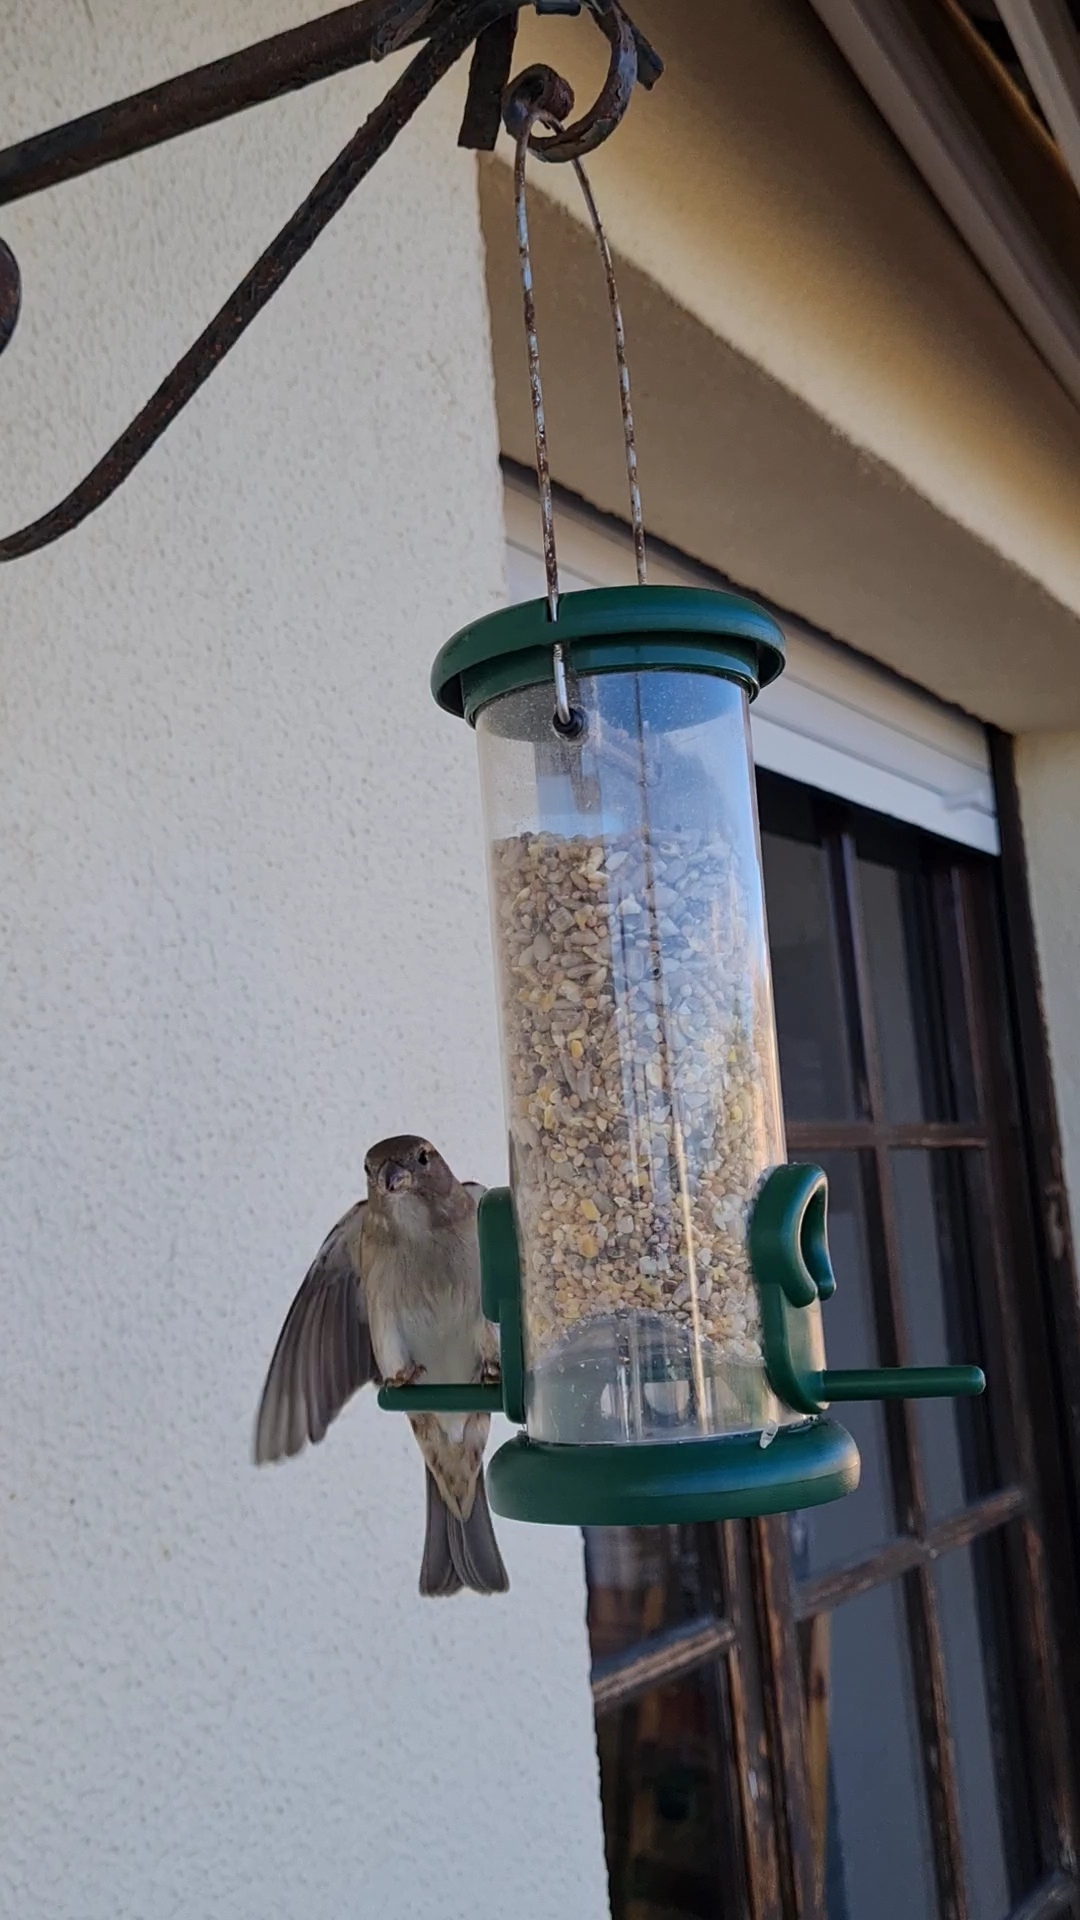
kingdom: Animalia
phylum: Chordata
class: Aves
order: Passeriformes
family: Passeridae
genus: Passer
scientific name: Passer domesticus
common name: House sparrow
